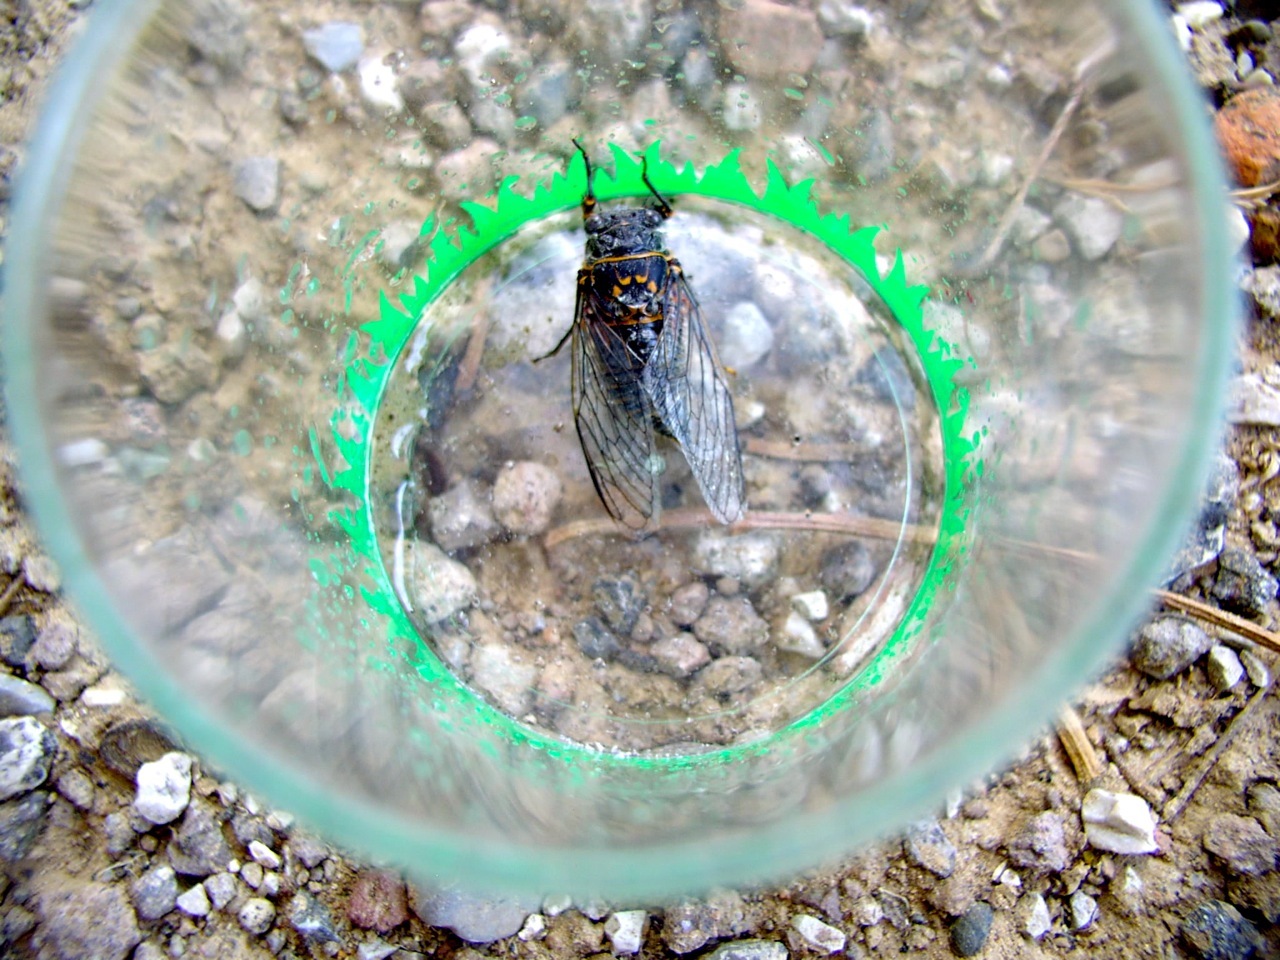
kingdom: Animalia
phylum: Arthropoda
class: Insecta
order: Hemiptera
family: Cicadidae
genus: Tibicina
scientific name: Tibicina
